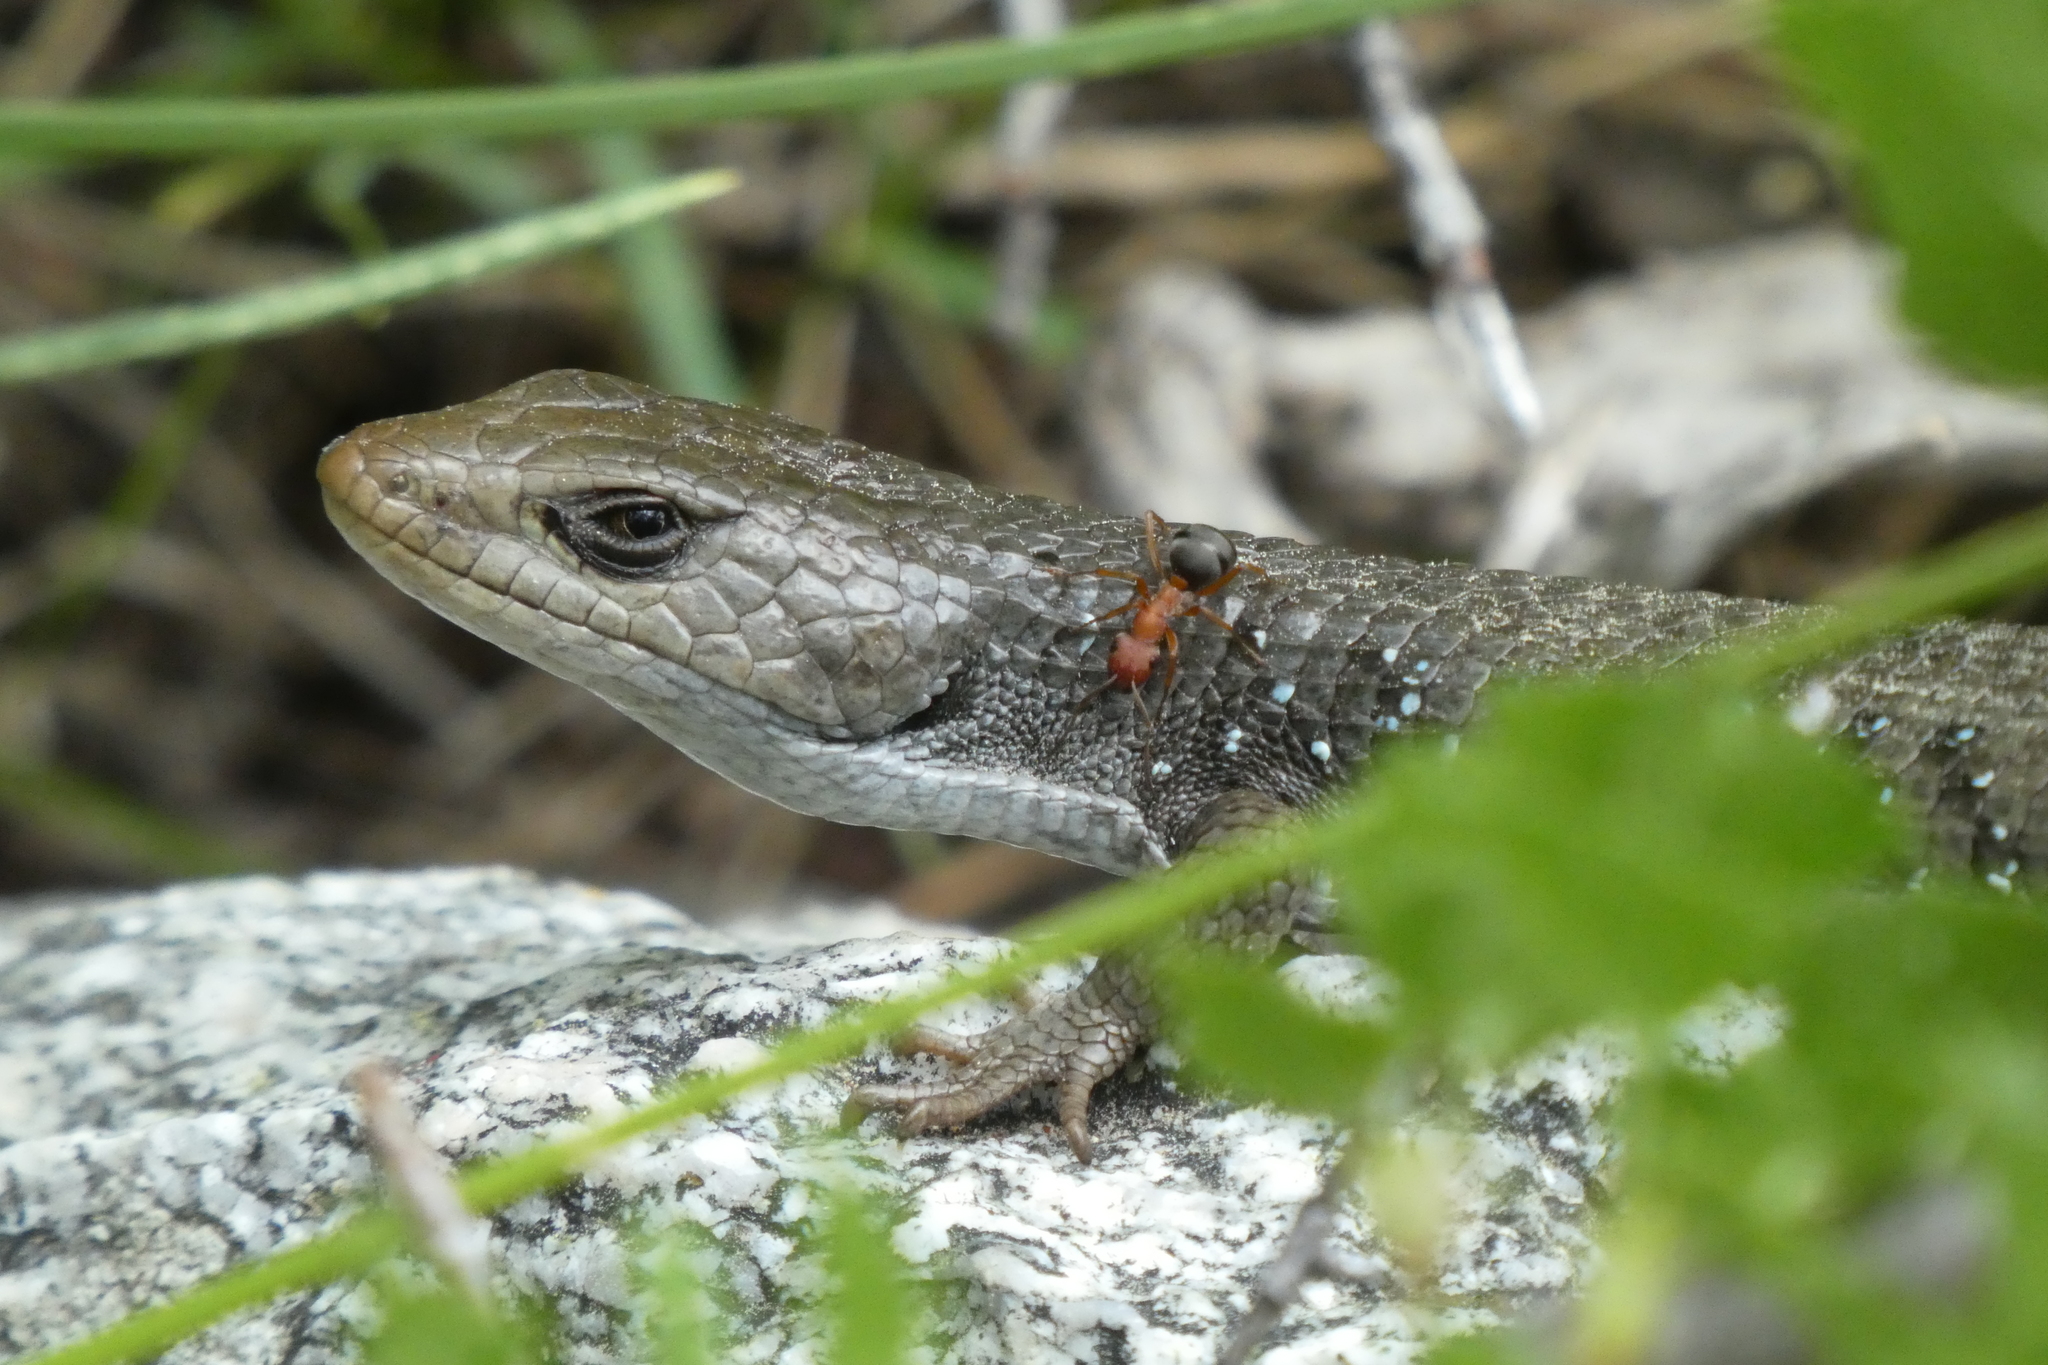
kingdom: Animalia
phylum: Chordata
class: Squamata
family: Anguidae
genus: Elgaria
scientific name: Elgaria coerulea
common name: Northern alligator lizard
